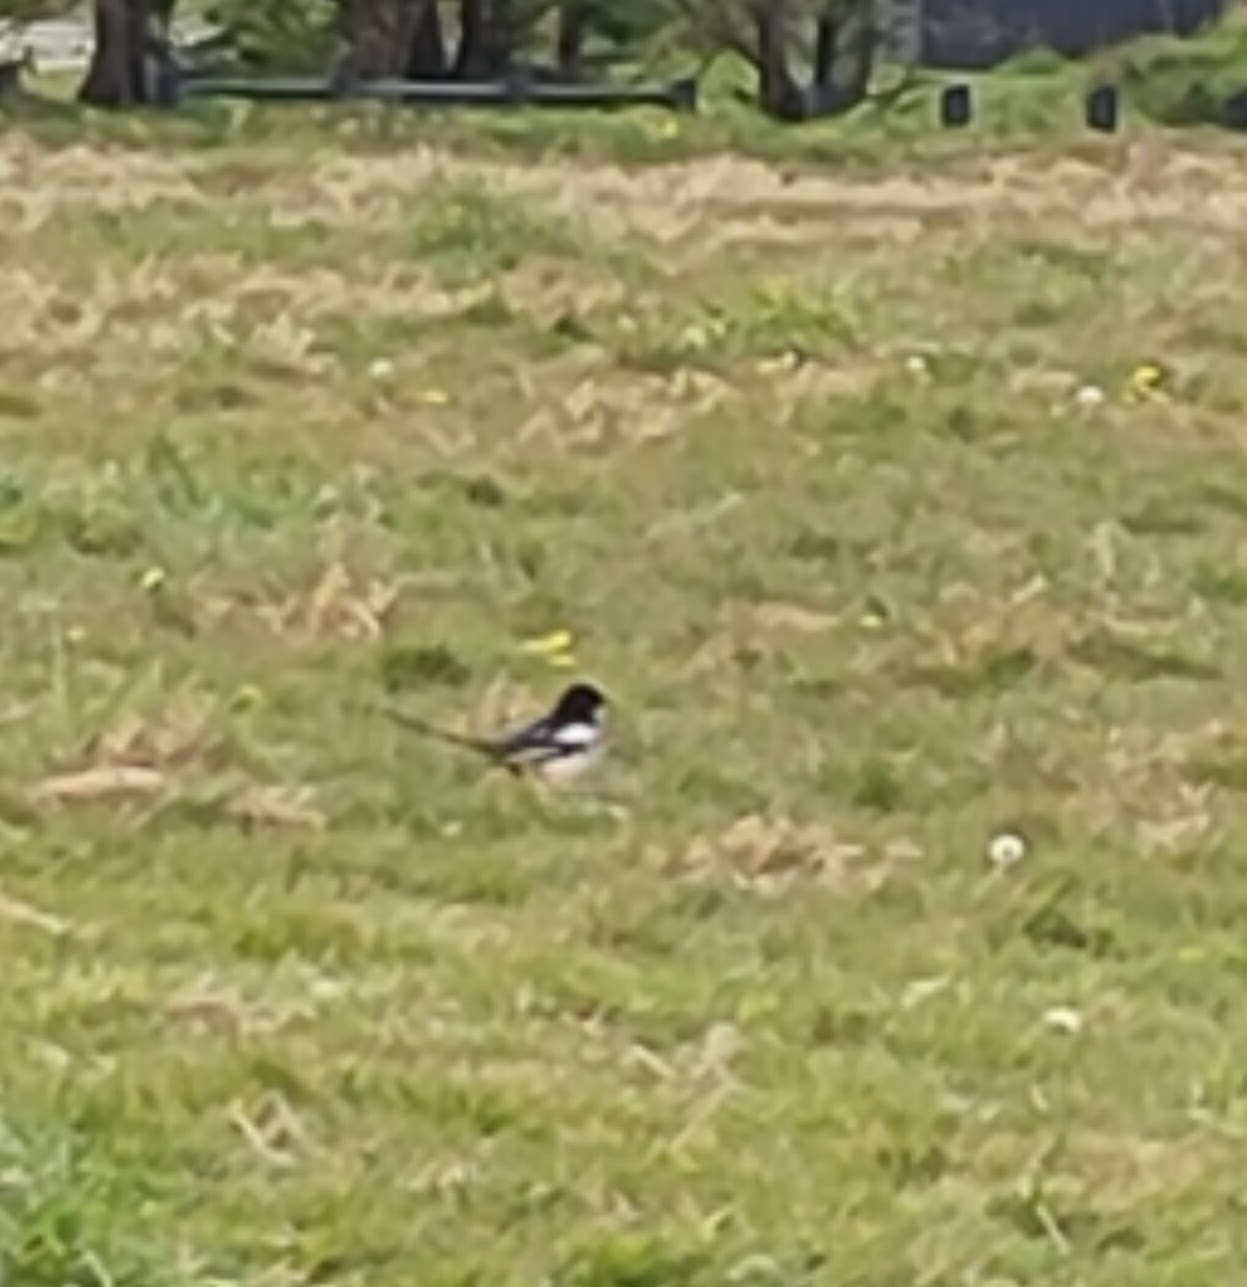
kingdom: Animalia
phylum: Chordata
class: Aves
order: Passeriformes
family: Corvidae
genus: Pica
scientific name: Pica pica
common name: Eurasian magpie
